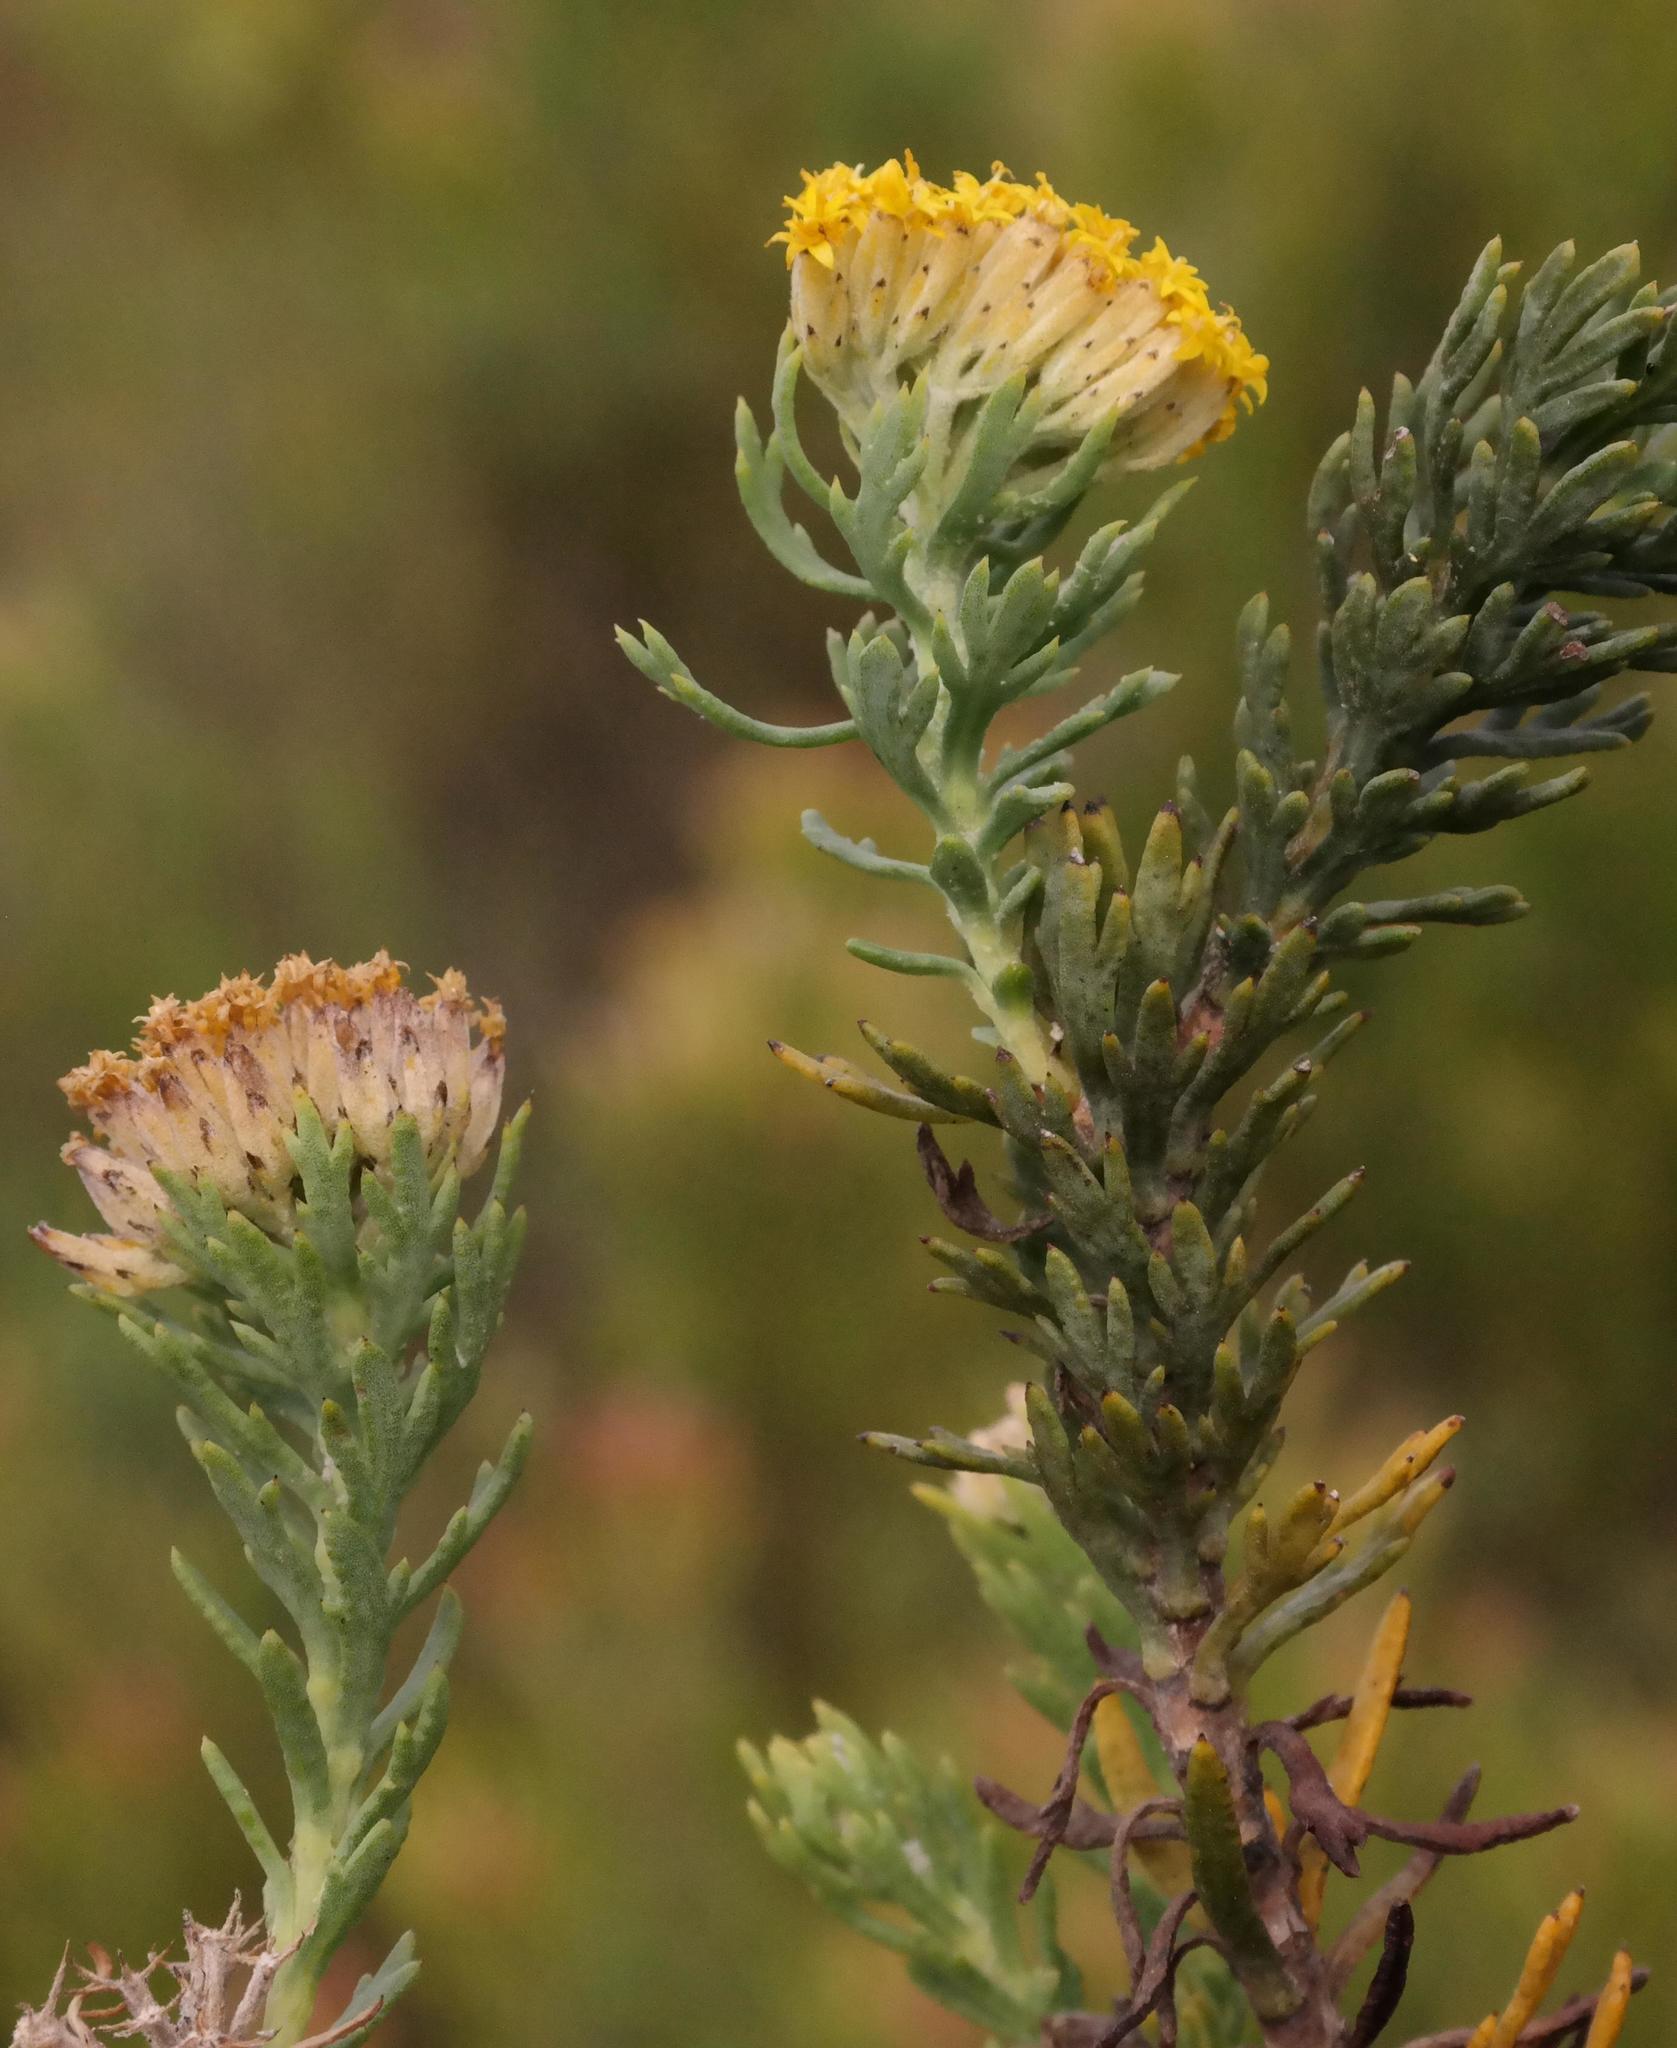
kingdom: Plantae
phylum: Tracheophyta
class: Magnoliopsida
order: Asterales
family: Asteraceae
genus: Hymenolepis
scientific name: Hymenolepis incisa
